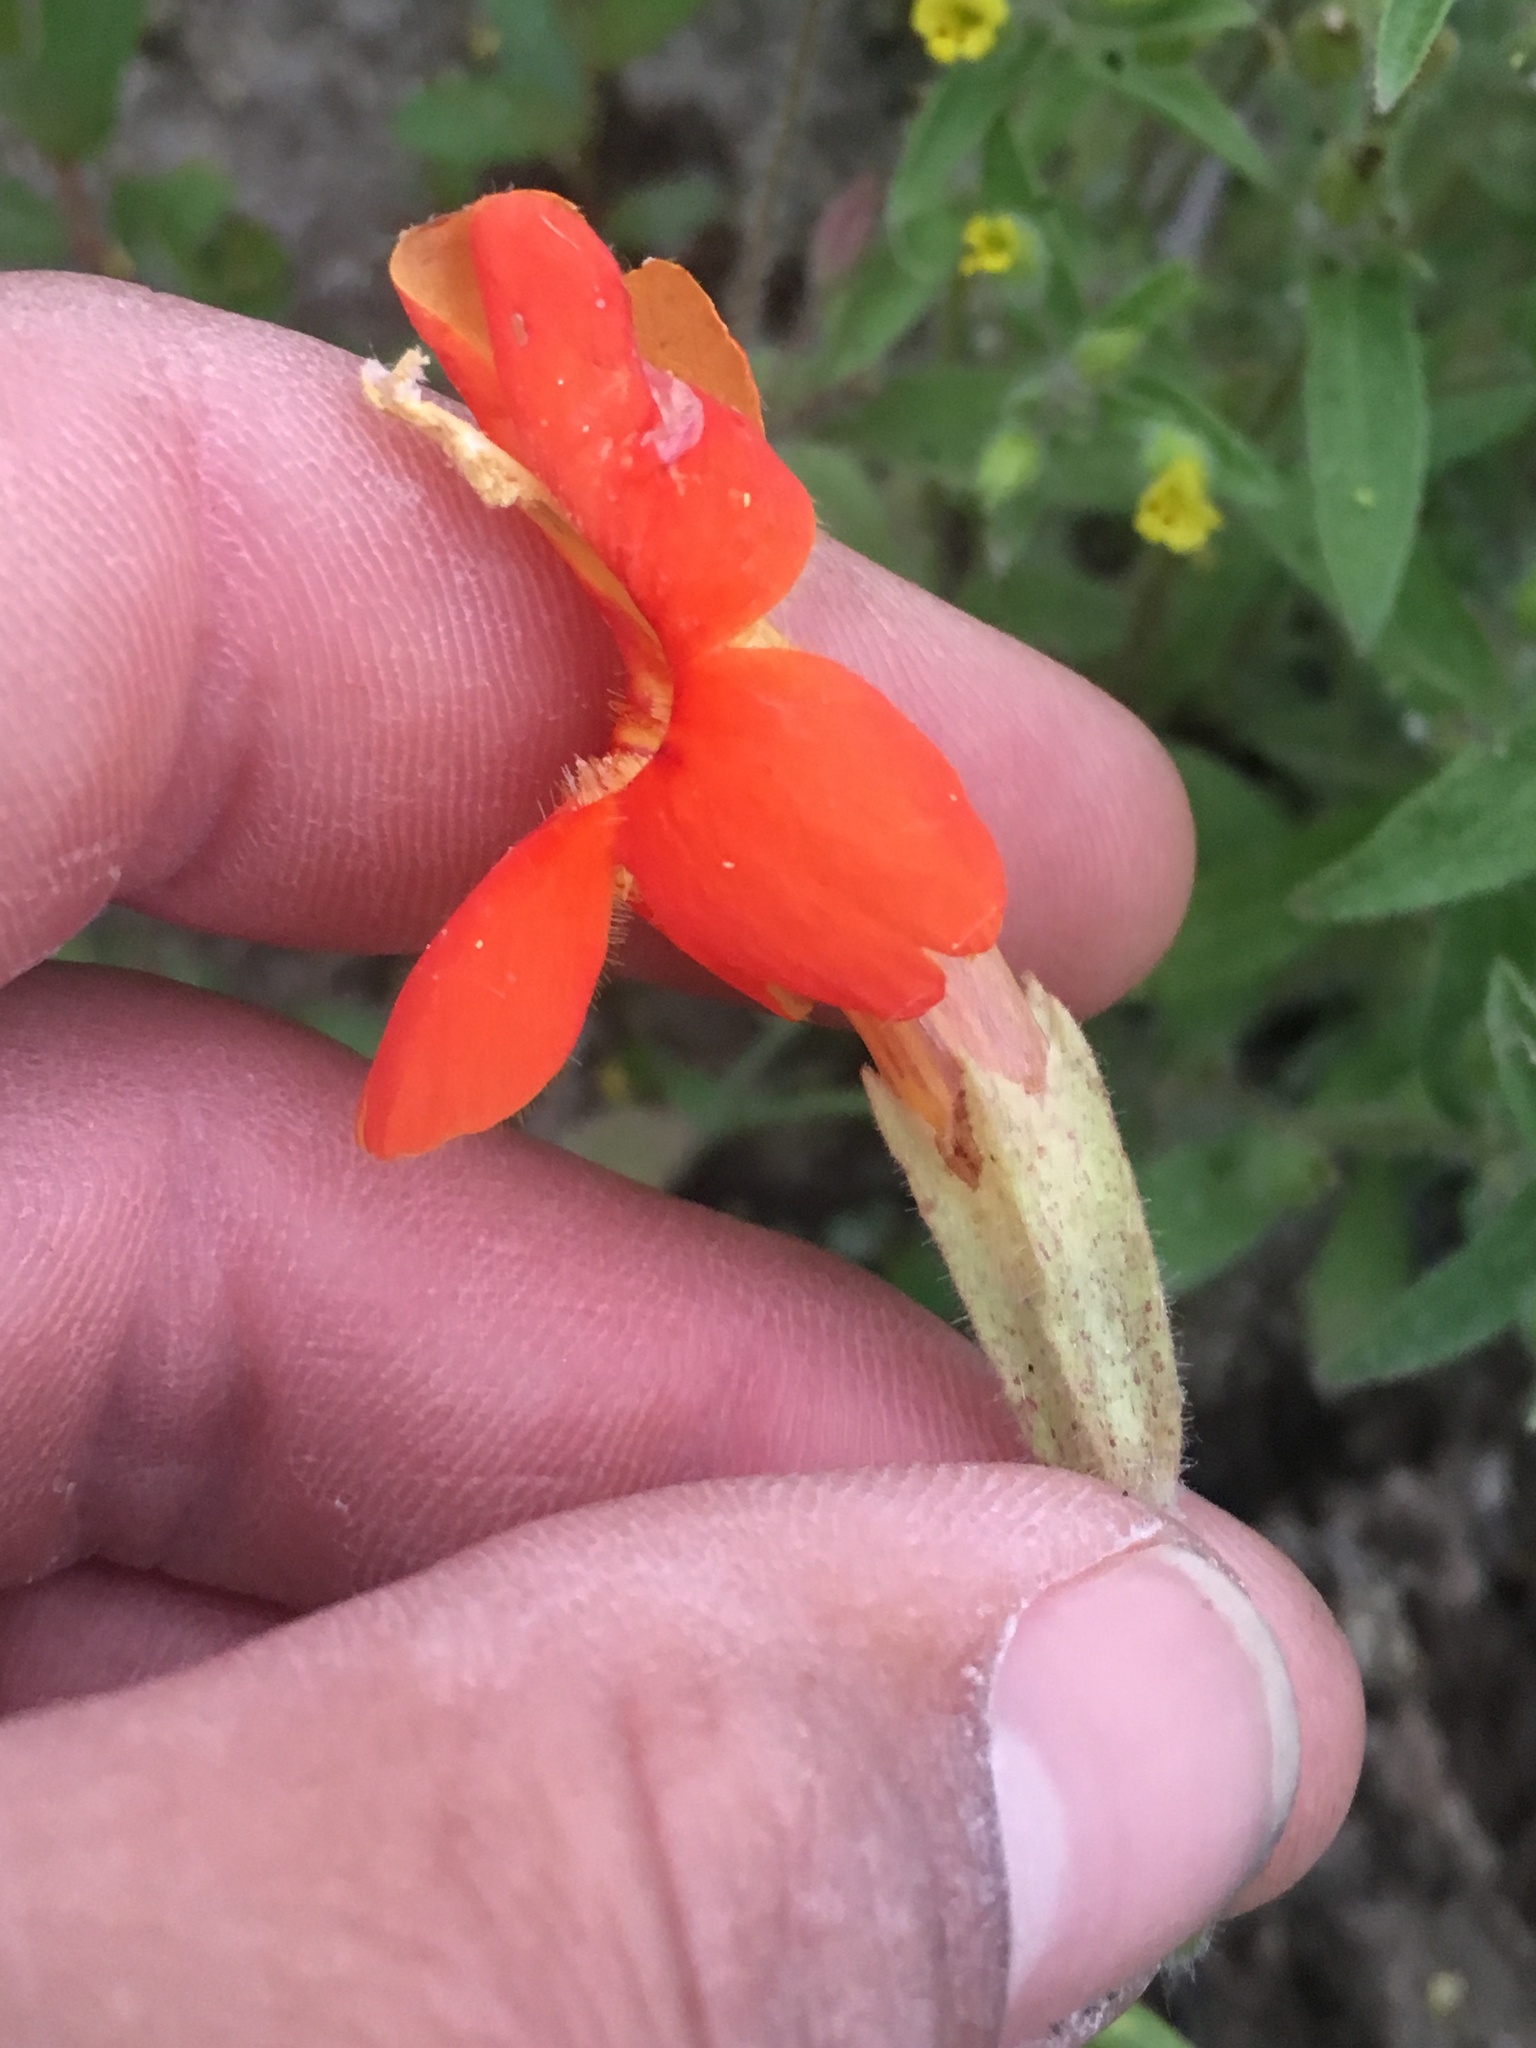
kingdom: Plantae
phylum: Tracheophyta
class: Magnoliopsida
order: Lamiales
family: Phrymaceae
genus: Erythranthe
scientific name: Erythranthe cardinalis
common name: Scarlet monkey-flower
